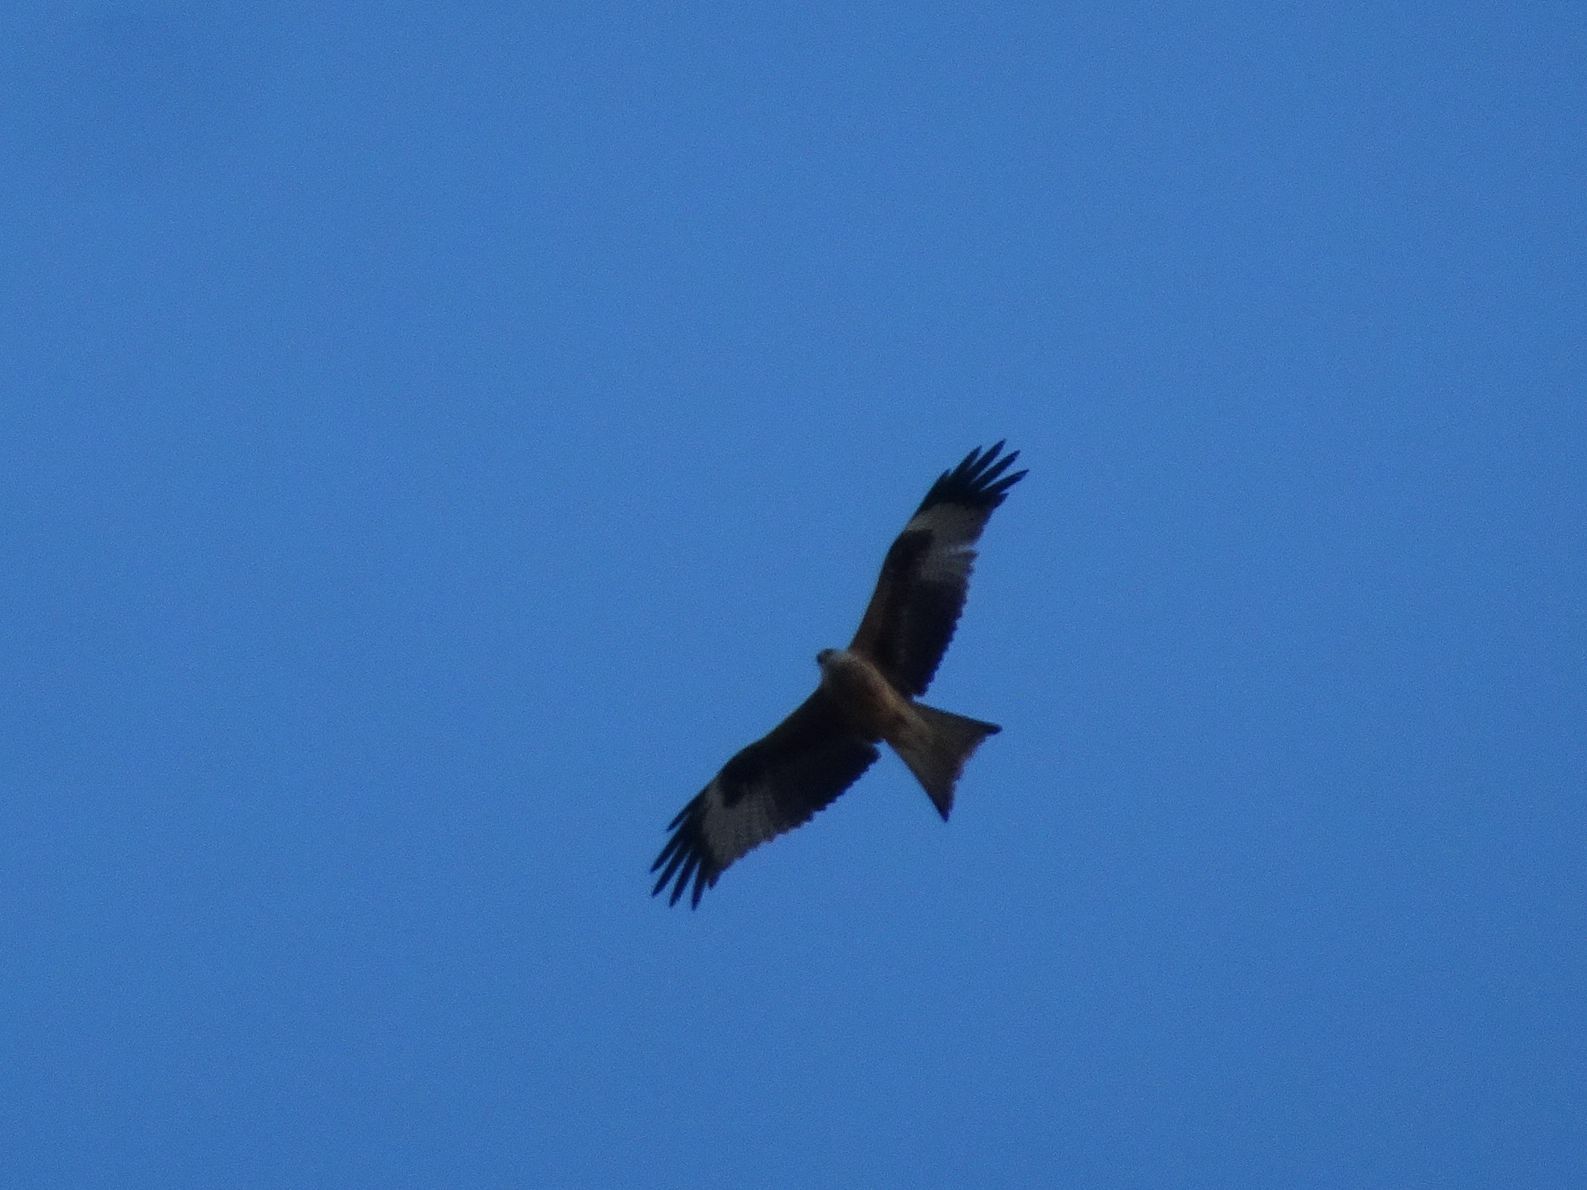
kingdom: Animalia
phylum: Chordata
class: Aves
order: Accipitriformes
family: Accipitridae
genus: Milvus
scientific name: Milvus milvus
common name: Red kite
